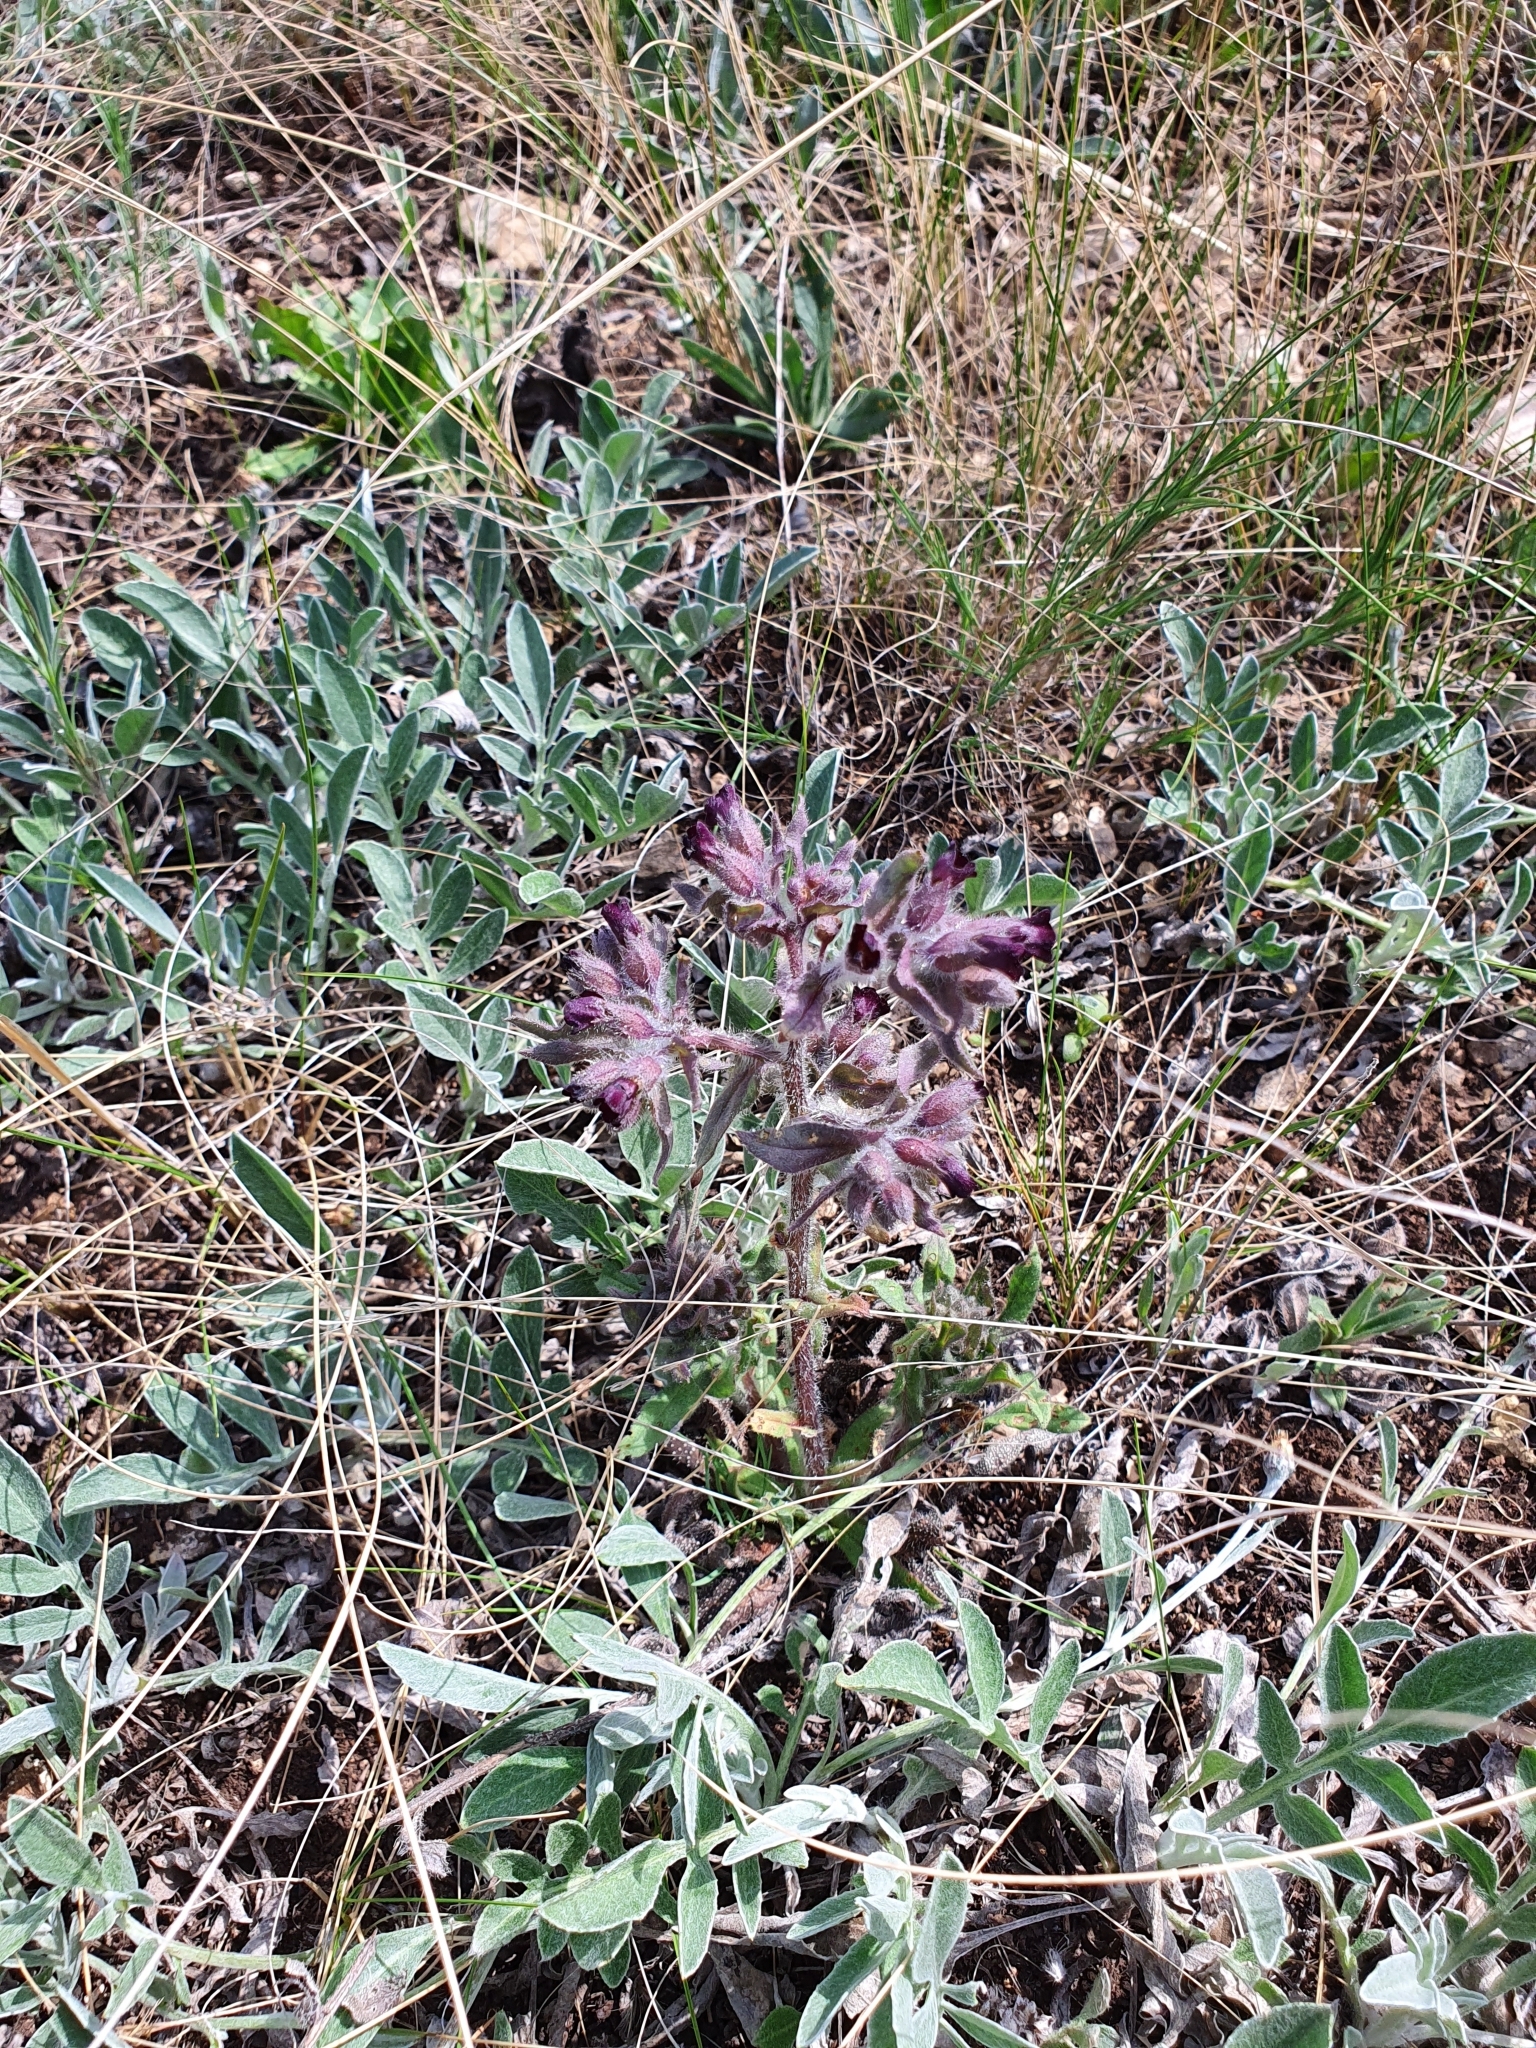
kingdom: Plantae
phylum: Tracheophyta
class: Magnoliopsida
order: Boraginales
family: Boraginaceae
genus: Nonea
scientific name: Nonea pulla
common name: Brown nonea
